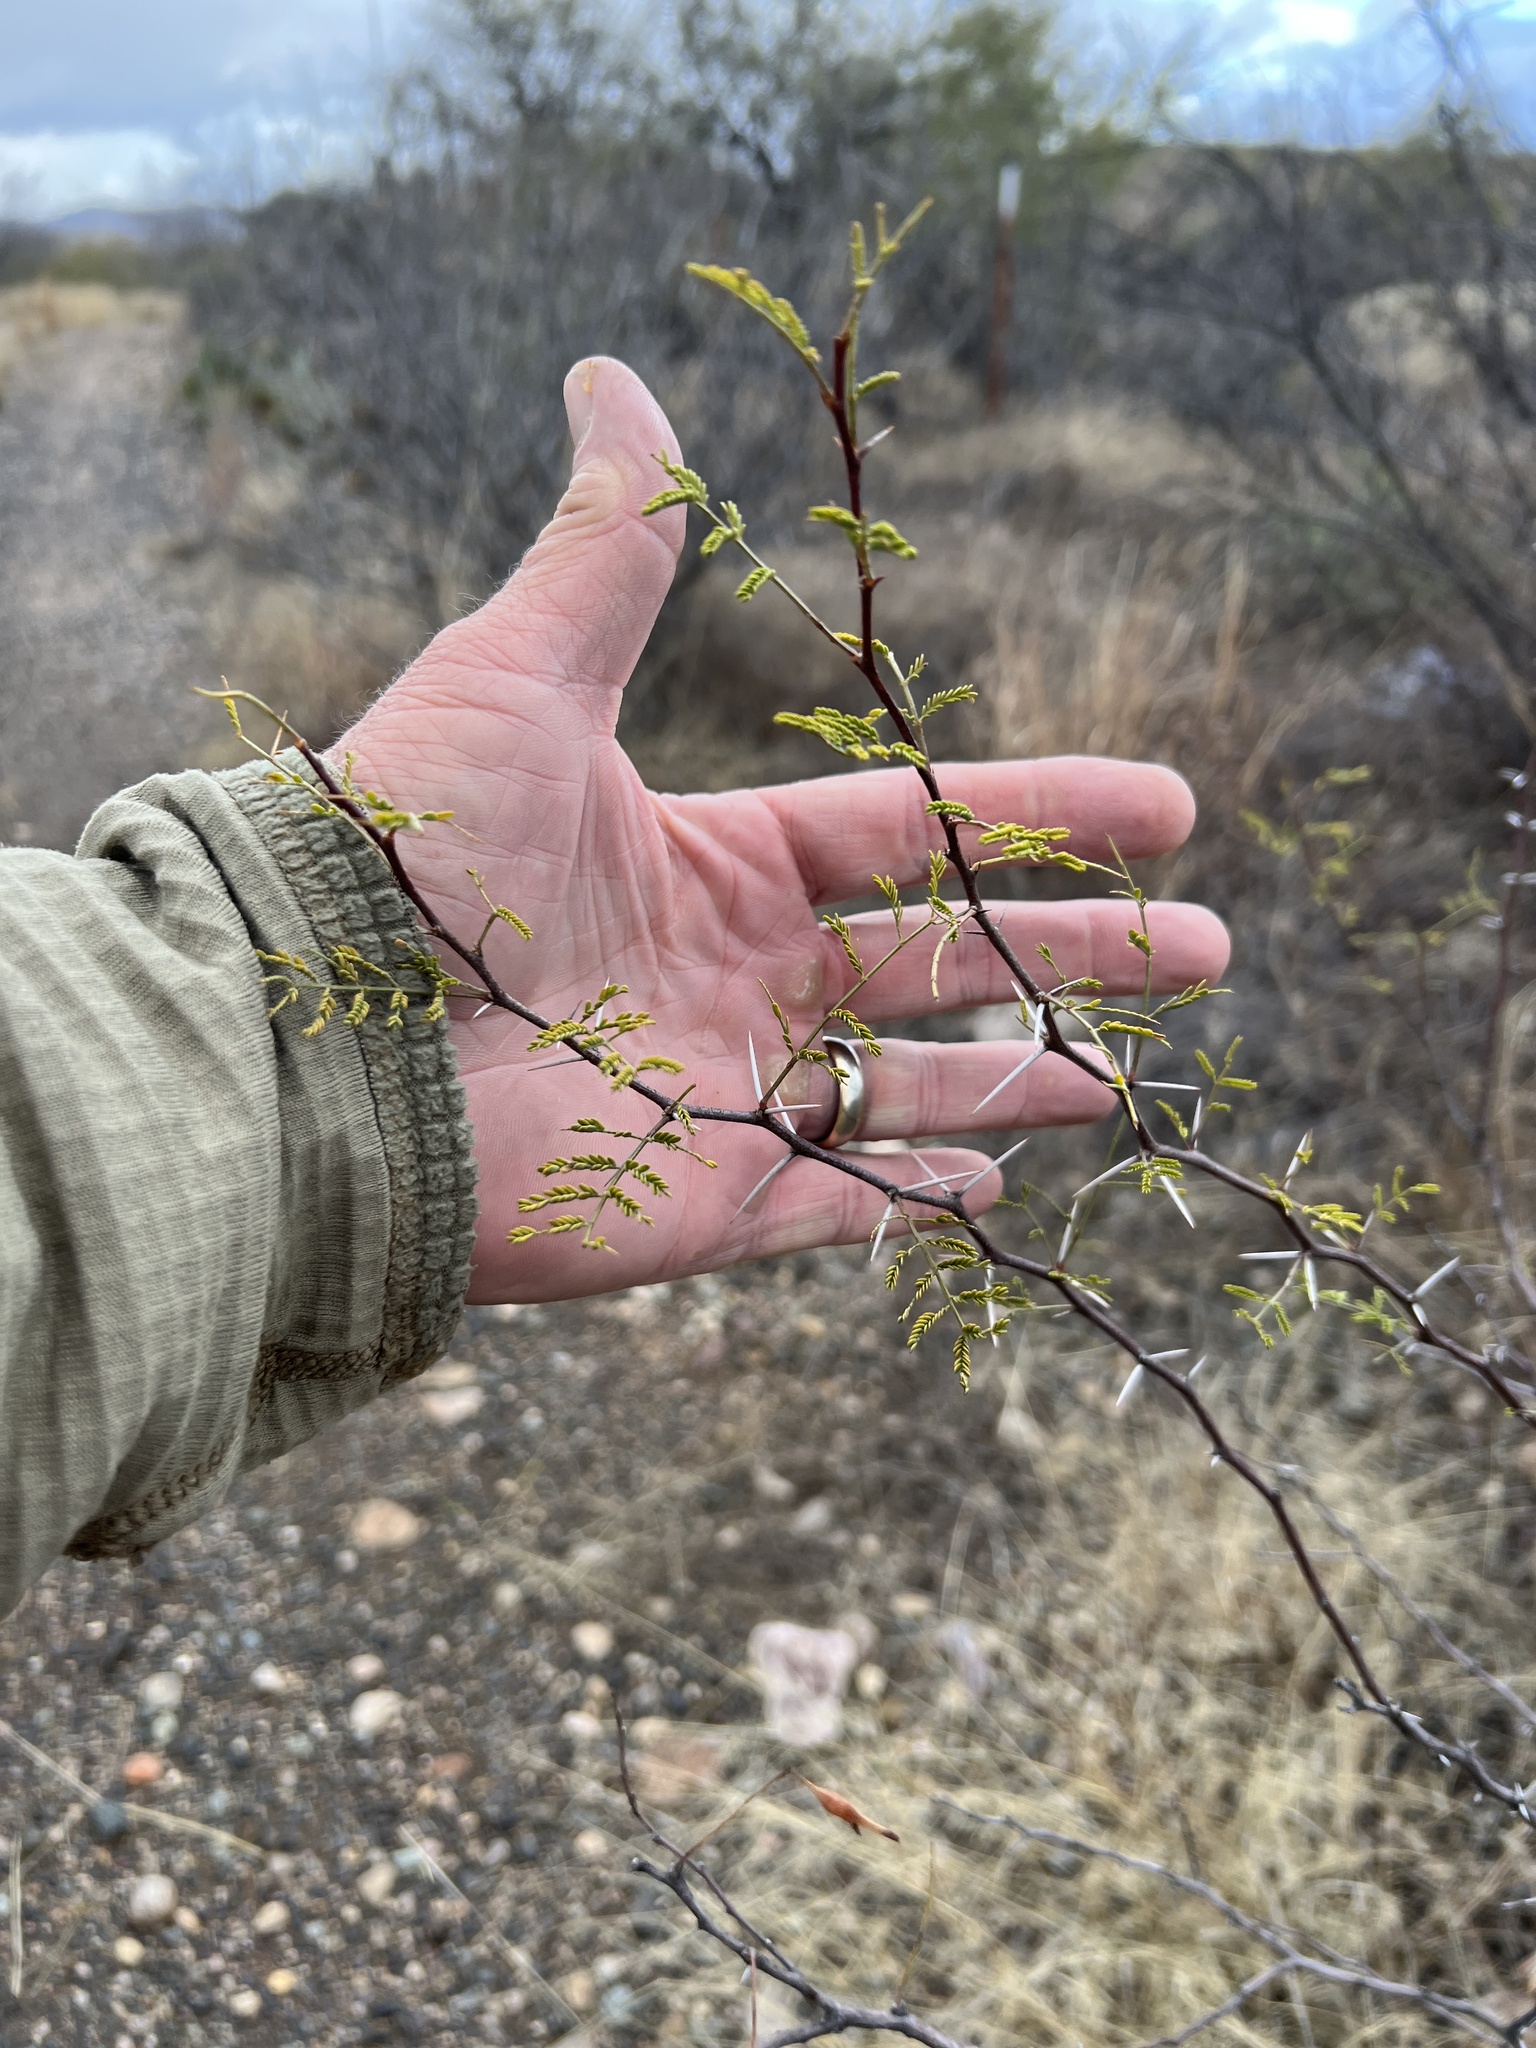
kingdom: Plantae
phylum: Tracheophyta
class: Magnoliopsida
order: Fabales
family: Fabaceae
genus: Vachellia
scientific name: Vachellia constricta
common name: Mescat acacia
